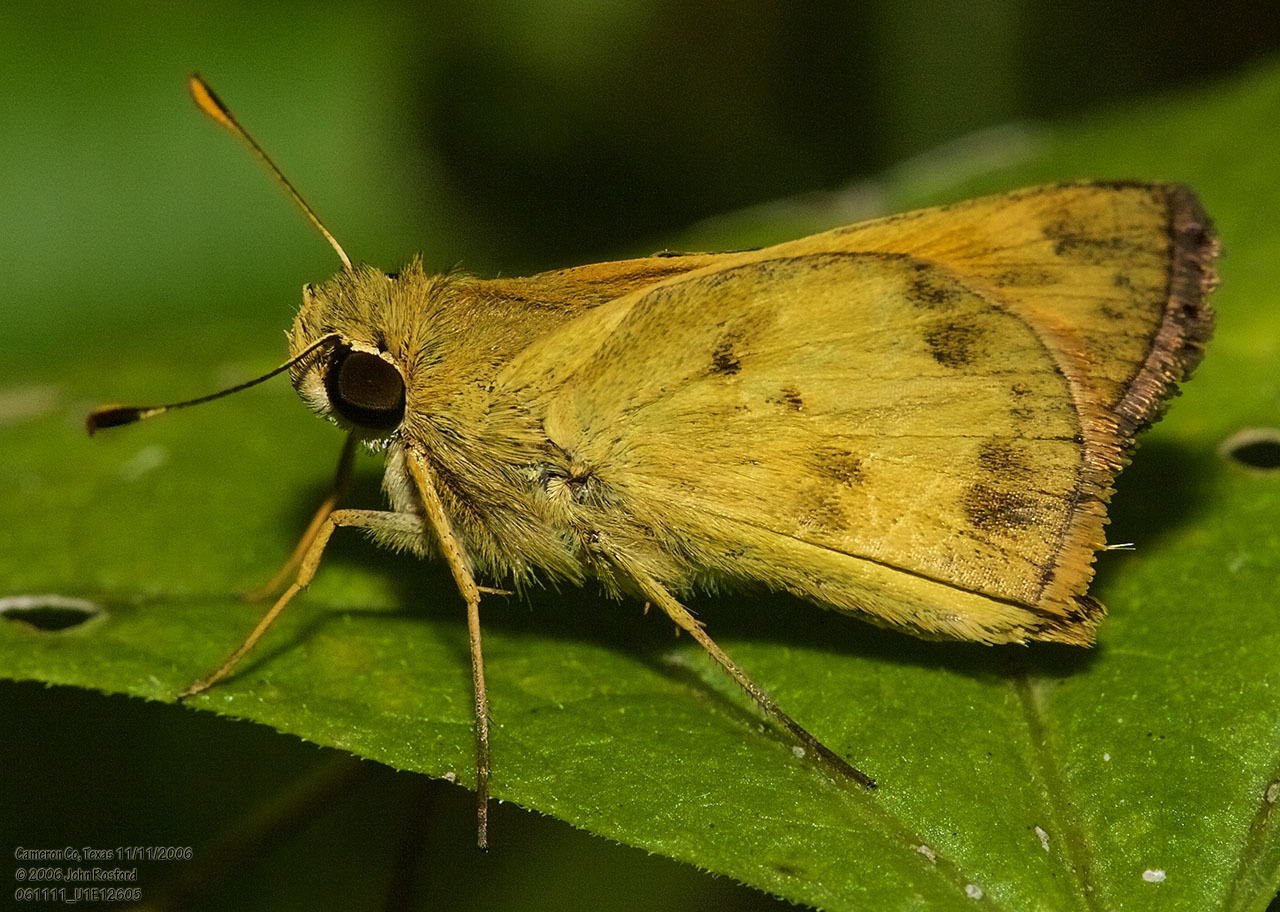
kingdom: Animalia
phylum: Arthropoda
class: Insecta
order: Lepidoptera
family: Hesperiidae
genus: Polites
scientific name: Polites vibex
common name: Whirlabout
